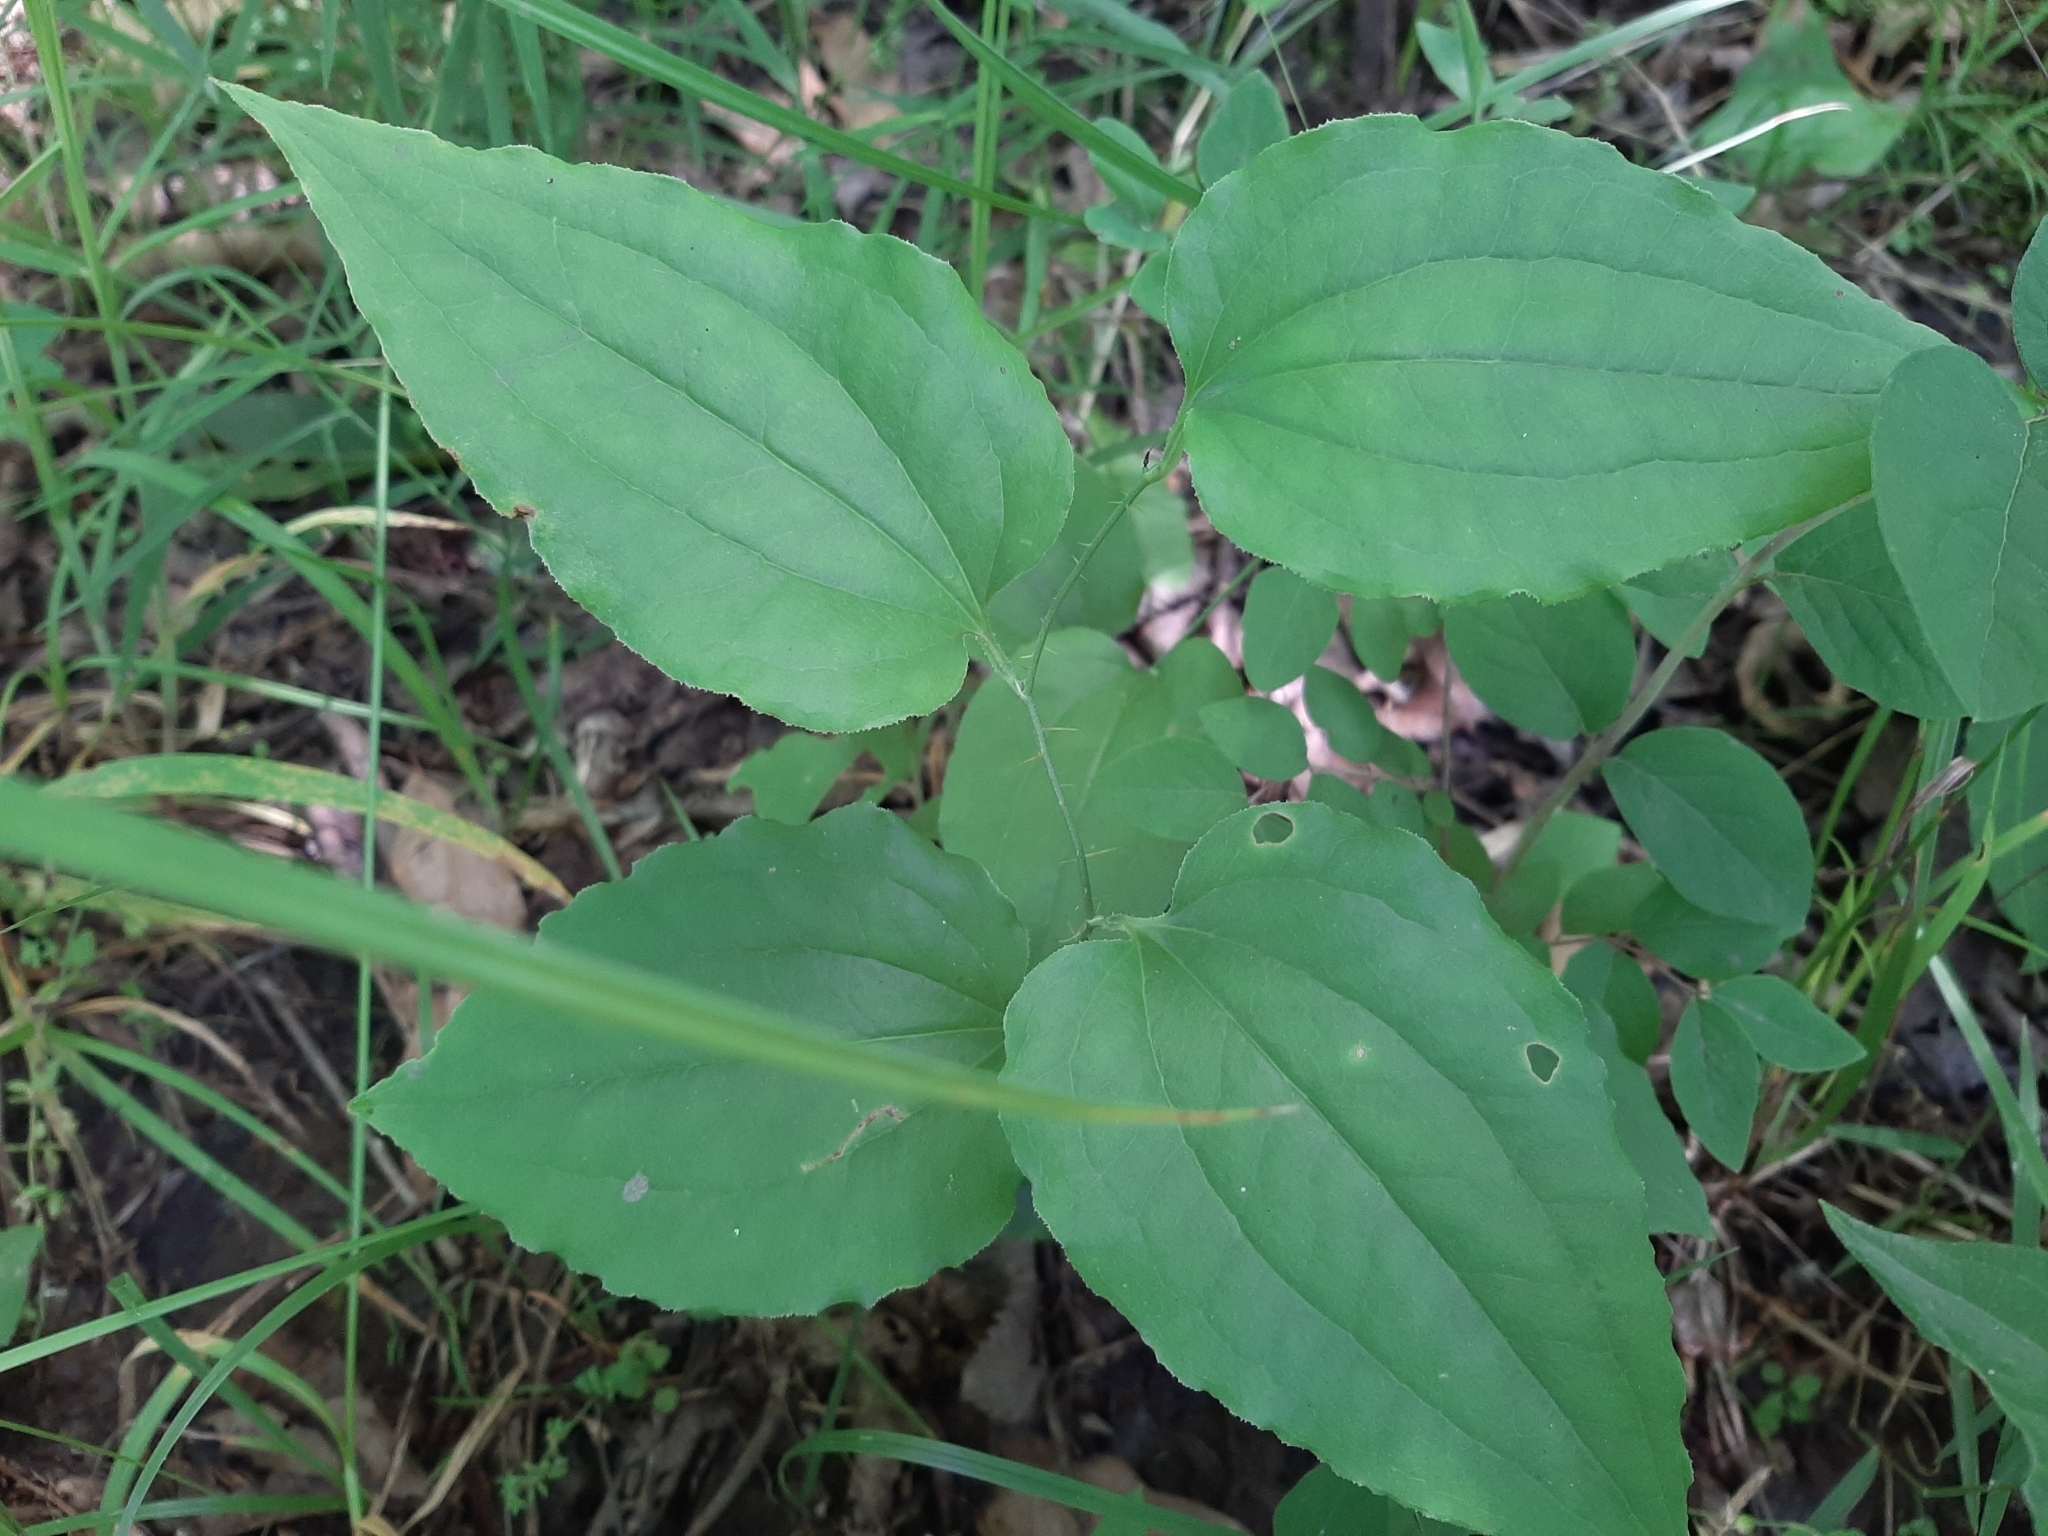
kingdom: Plantae
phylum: Tracheophyta
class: Liliopsida
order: Liliales
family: Smilacaceae
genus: Smilax
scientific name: Smilax tamnoides
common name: Hellfetter
